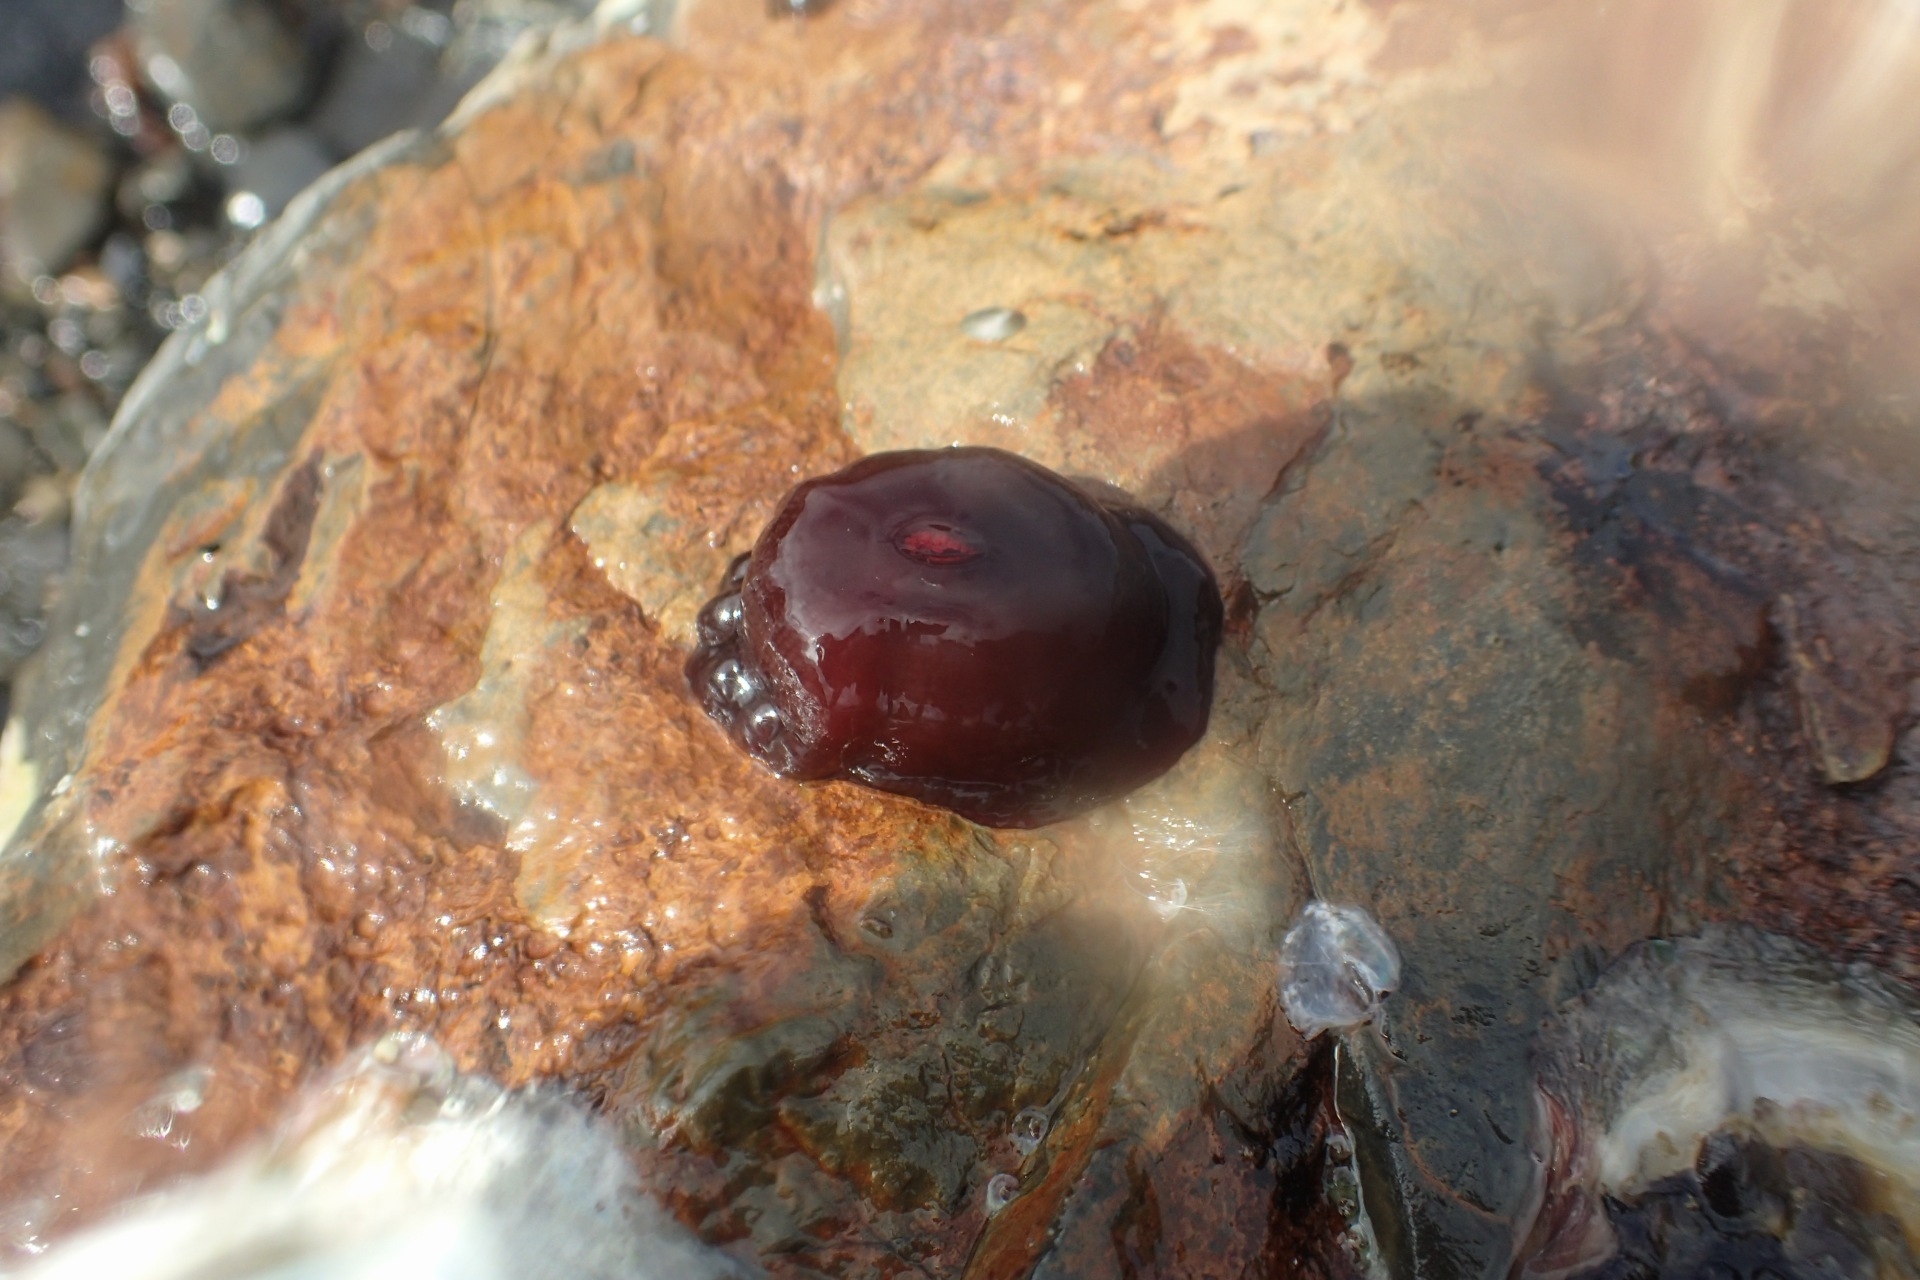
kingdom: Animalia
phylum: Cnidaria
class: Anthozoa
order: Actiniaria
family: Actiniidae
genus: Actinia
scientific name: Actinia tenebrosa
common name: Waratah anemone
